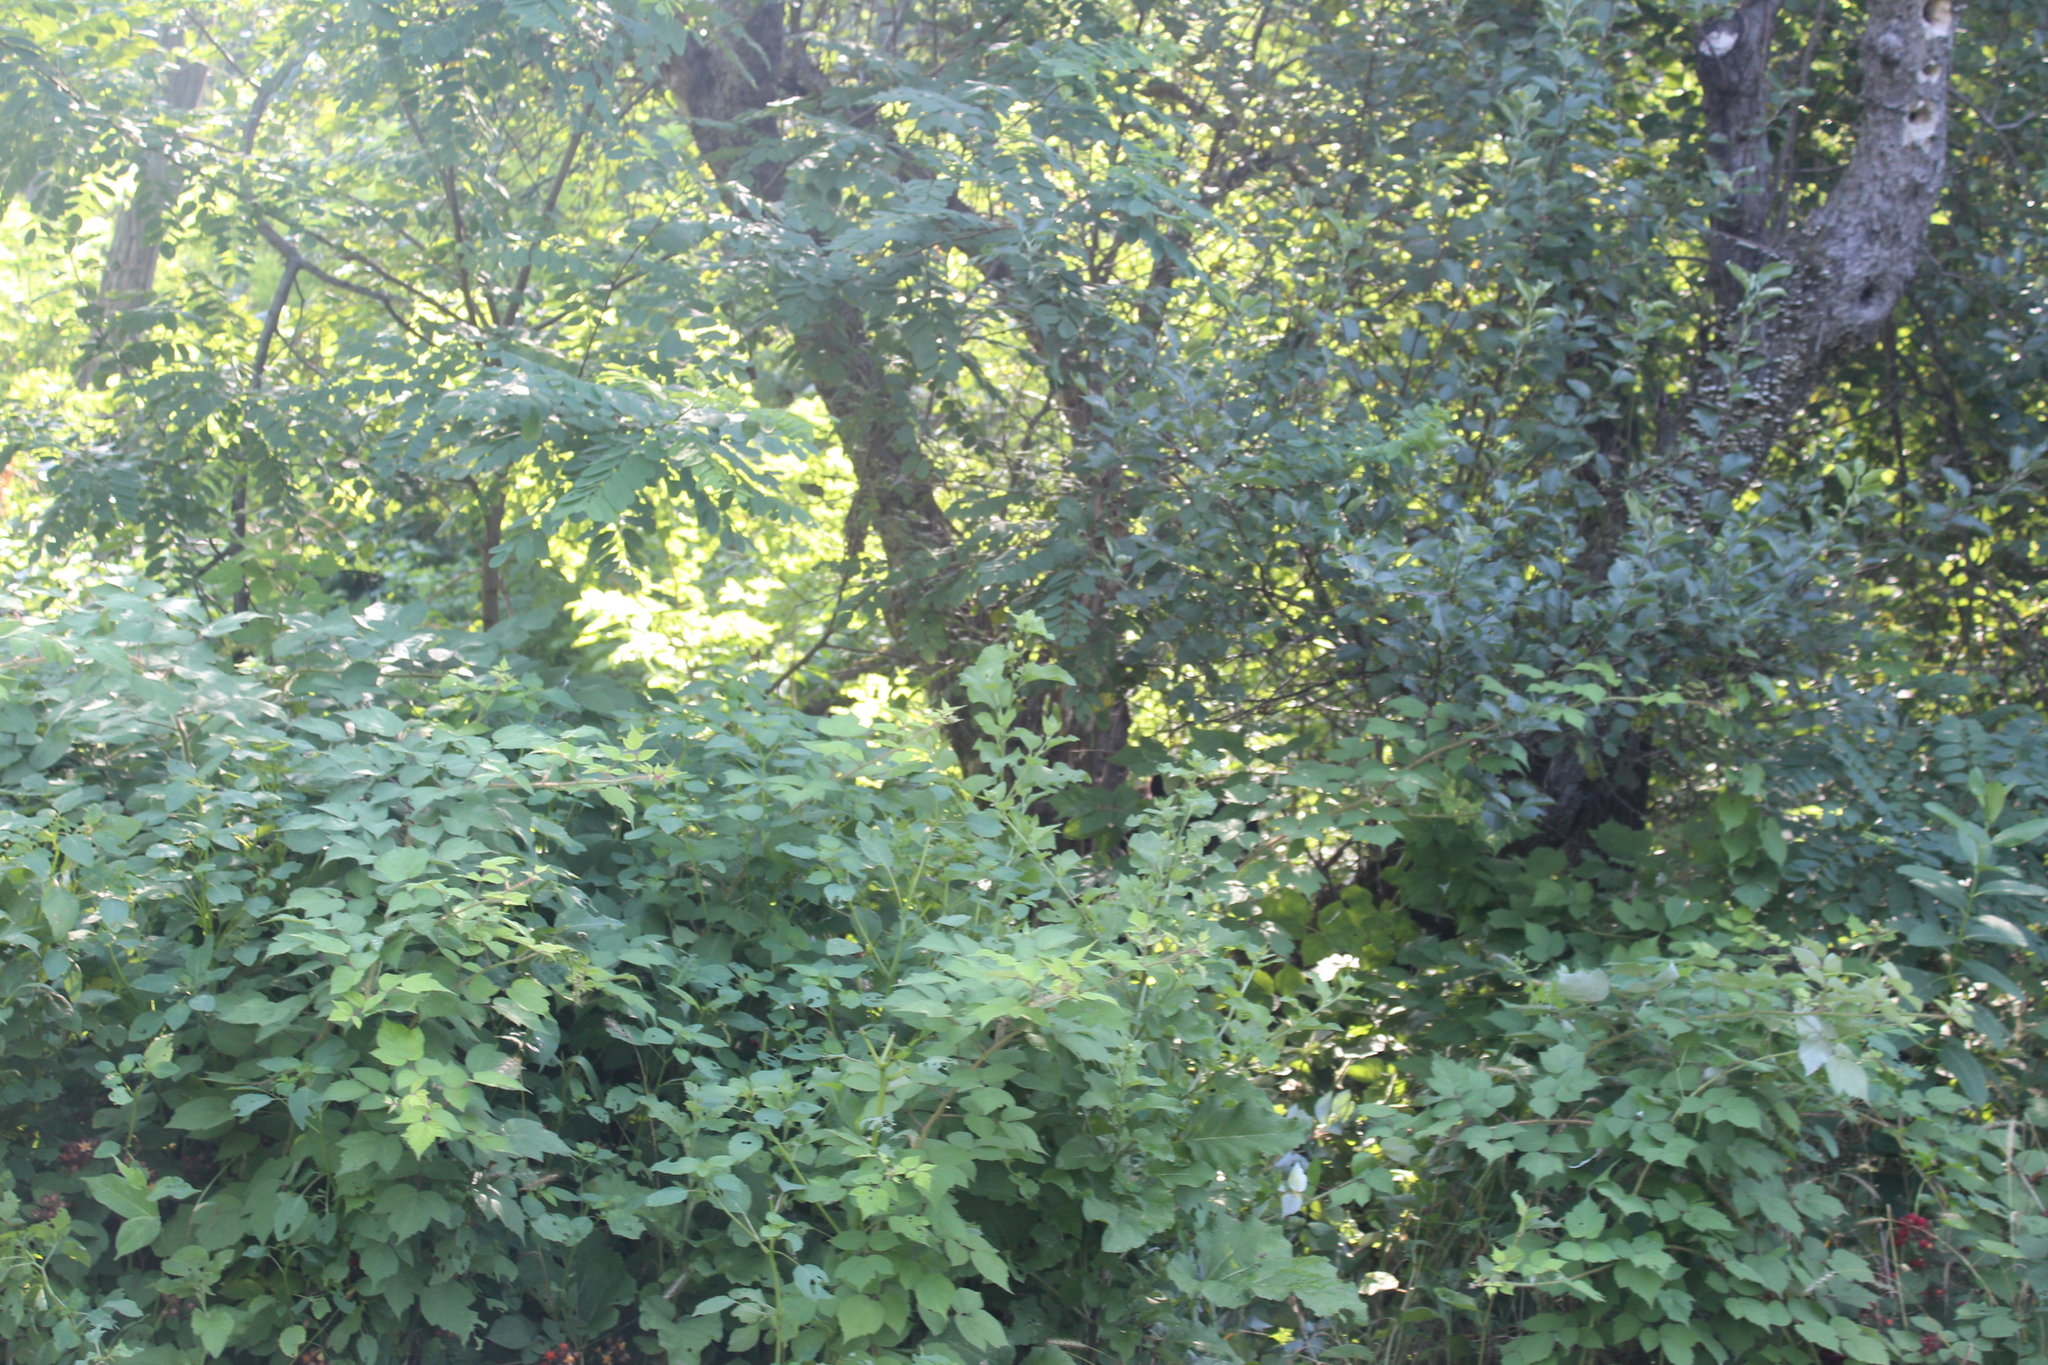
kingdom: Animalia
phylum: Chordata
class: Mammalia
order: Carnivora
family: Ursidae
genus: Ursus
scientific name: Ursus americanus
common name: American black bear
